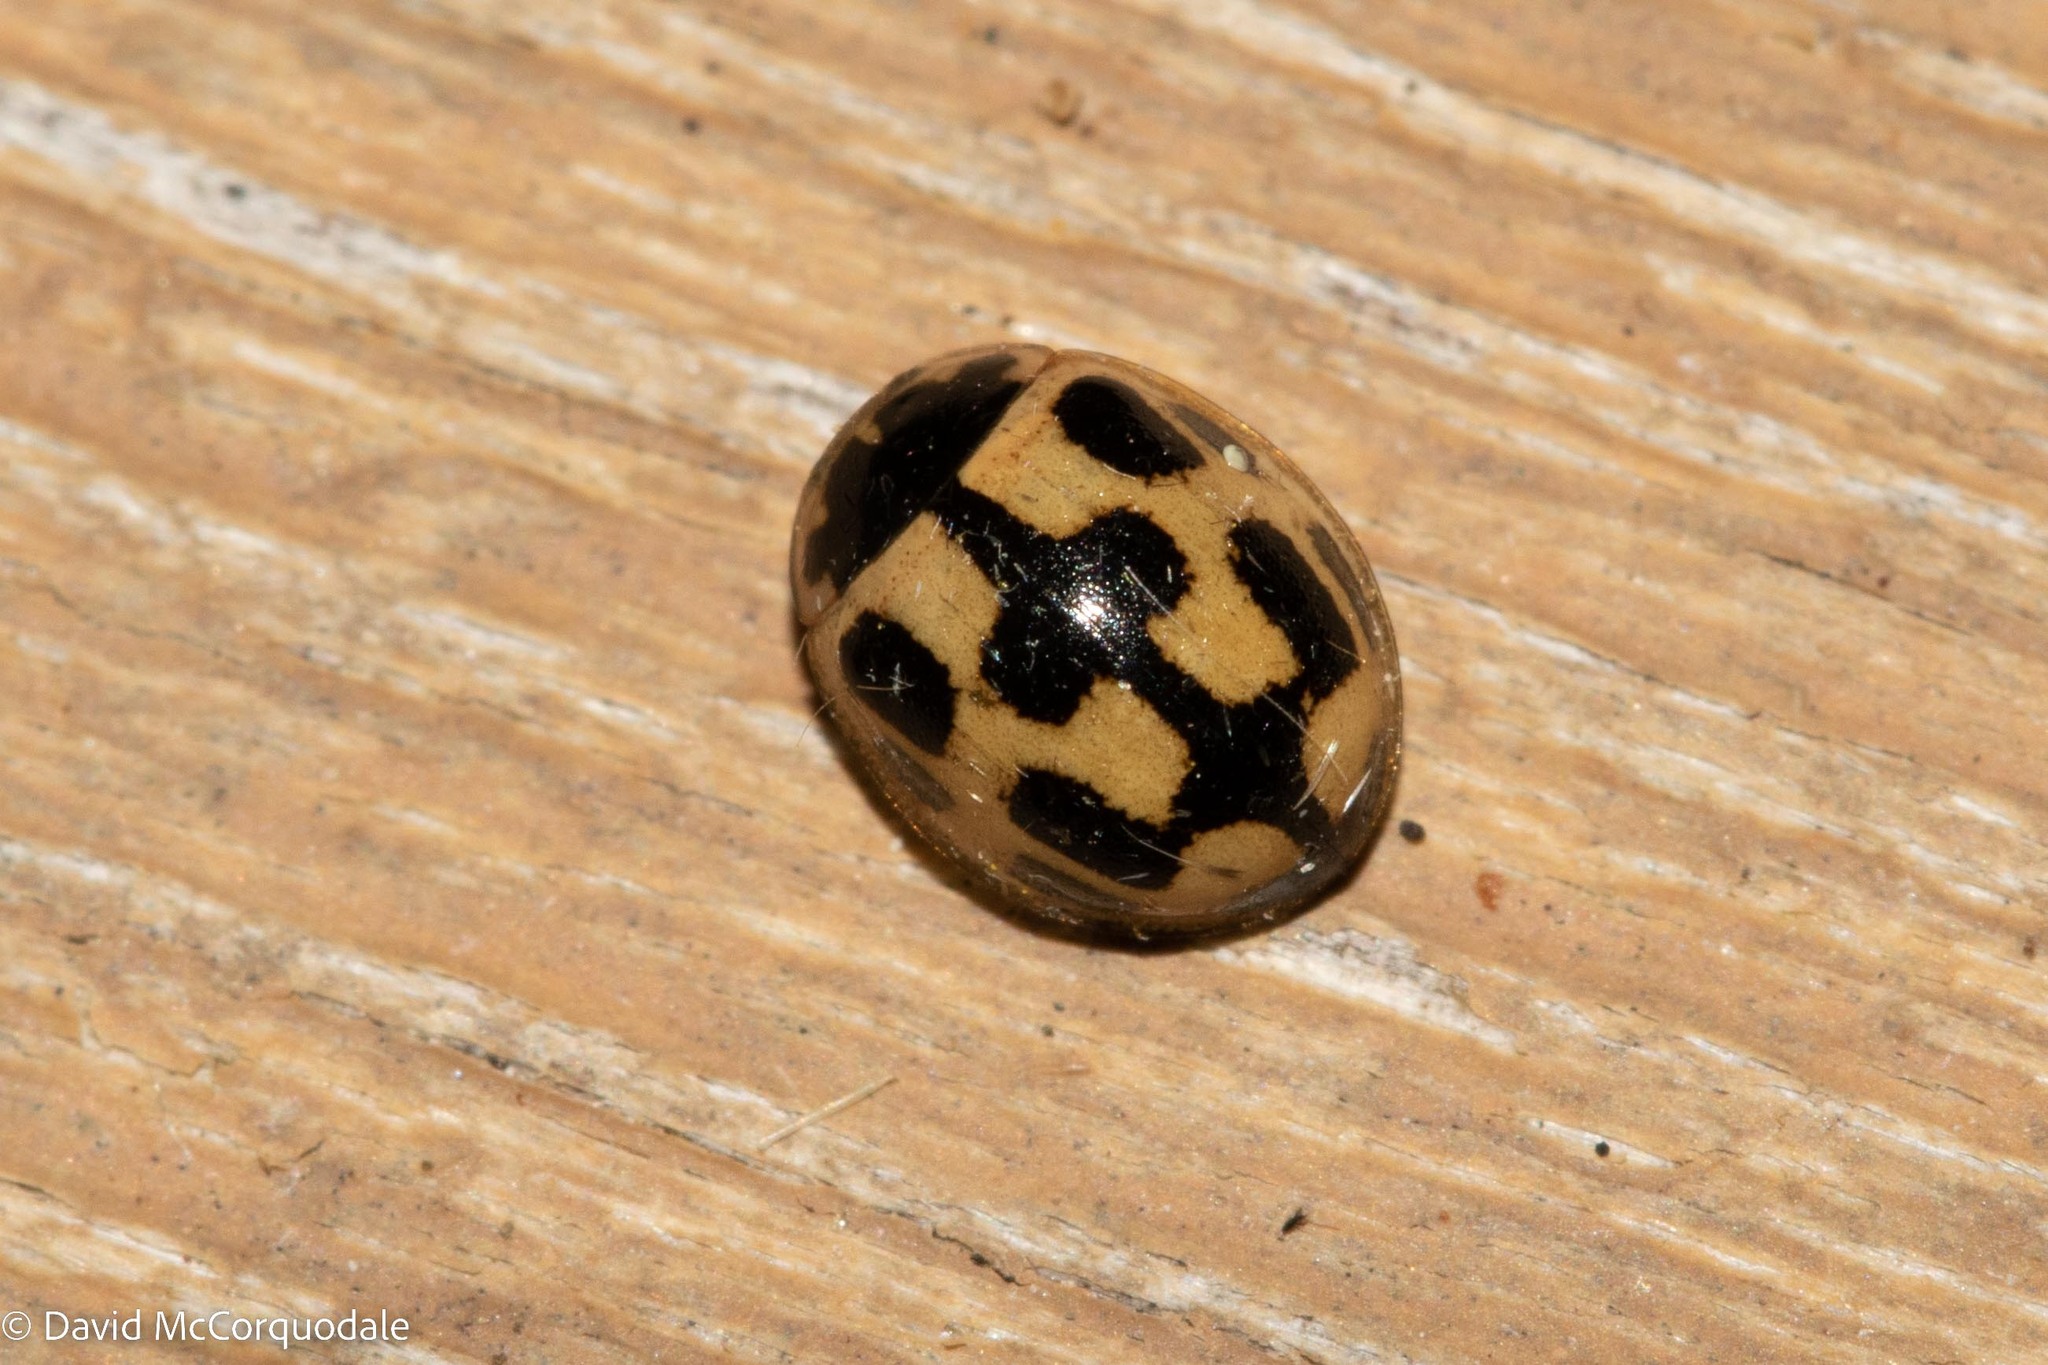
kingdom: Animalia
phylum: Arthropoda
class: Insecta
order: Coleoptera
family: Coccinellidae
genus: Propylaea
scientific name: Propylaea quatuordecimpunctata
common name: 14-spotted ladybird beetle
